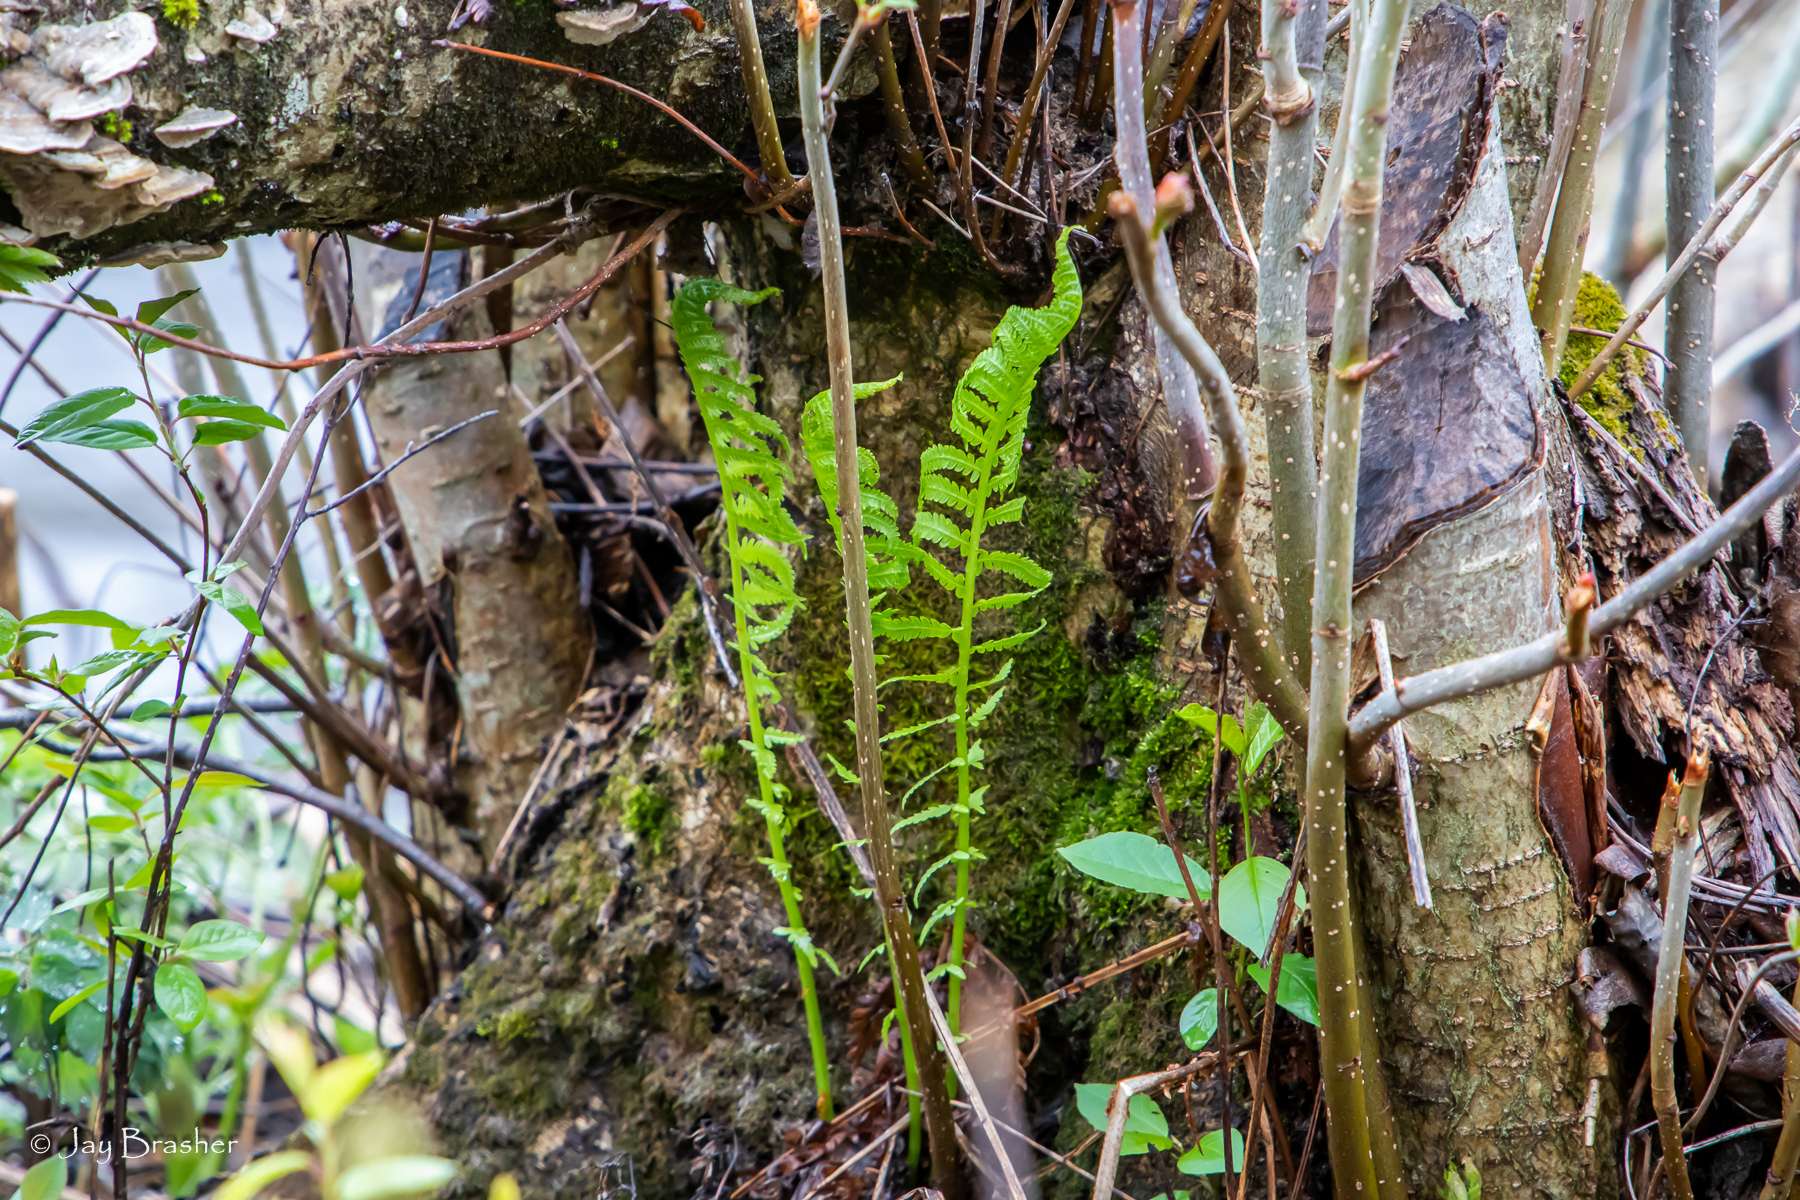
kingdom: Plantae
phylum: Tracheophyta
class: Polypodiopsida
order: Polypodiales
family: Onocleaceae
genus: Matteuccia
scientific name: Matteuccia struthiopteris
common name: Ostrich fern
